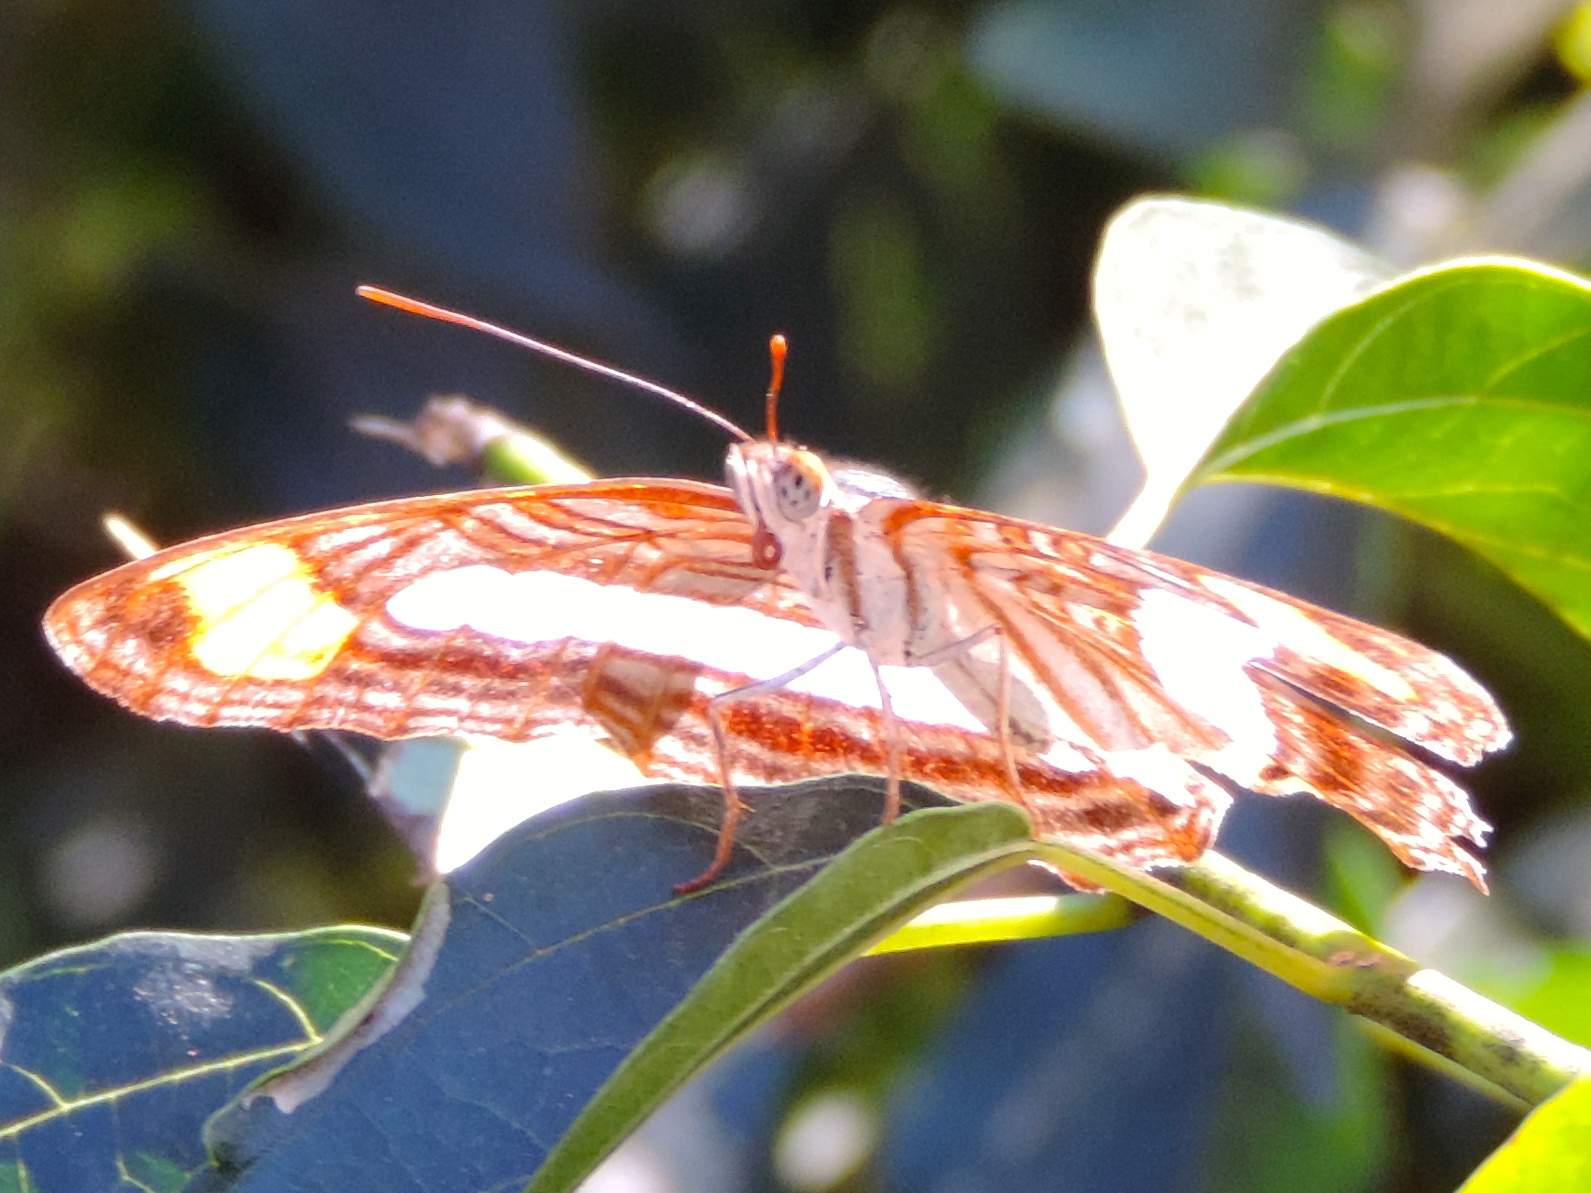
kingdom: Animalia
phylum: Arthropoda
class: Insecta
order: Lepidoptera
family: Nymphalidae
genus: Limenitis
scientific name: Limenitis iphiclus
